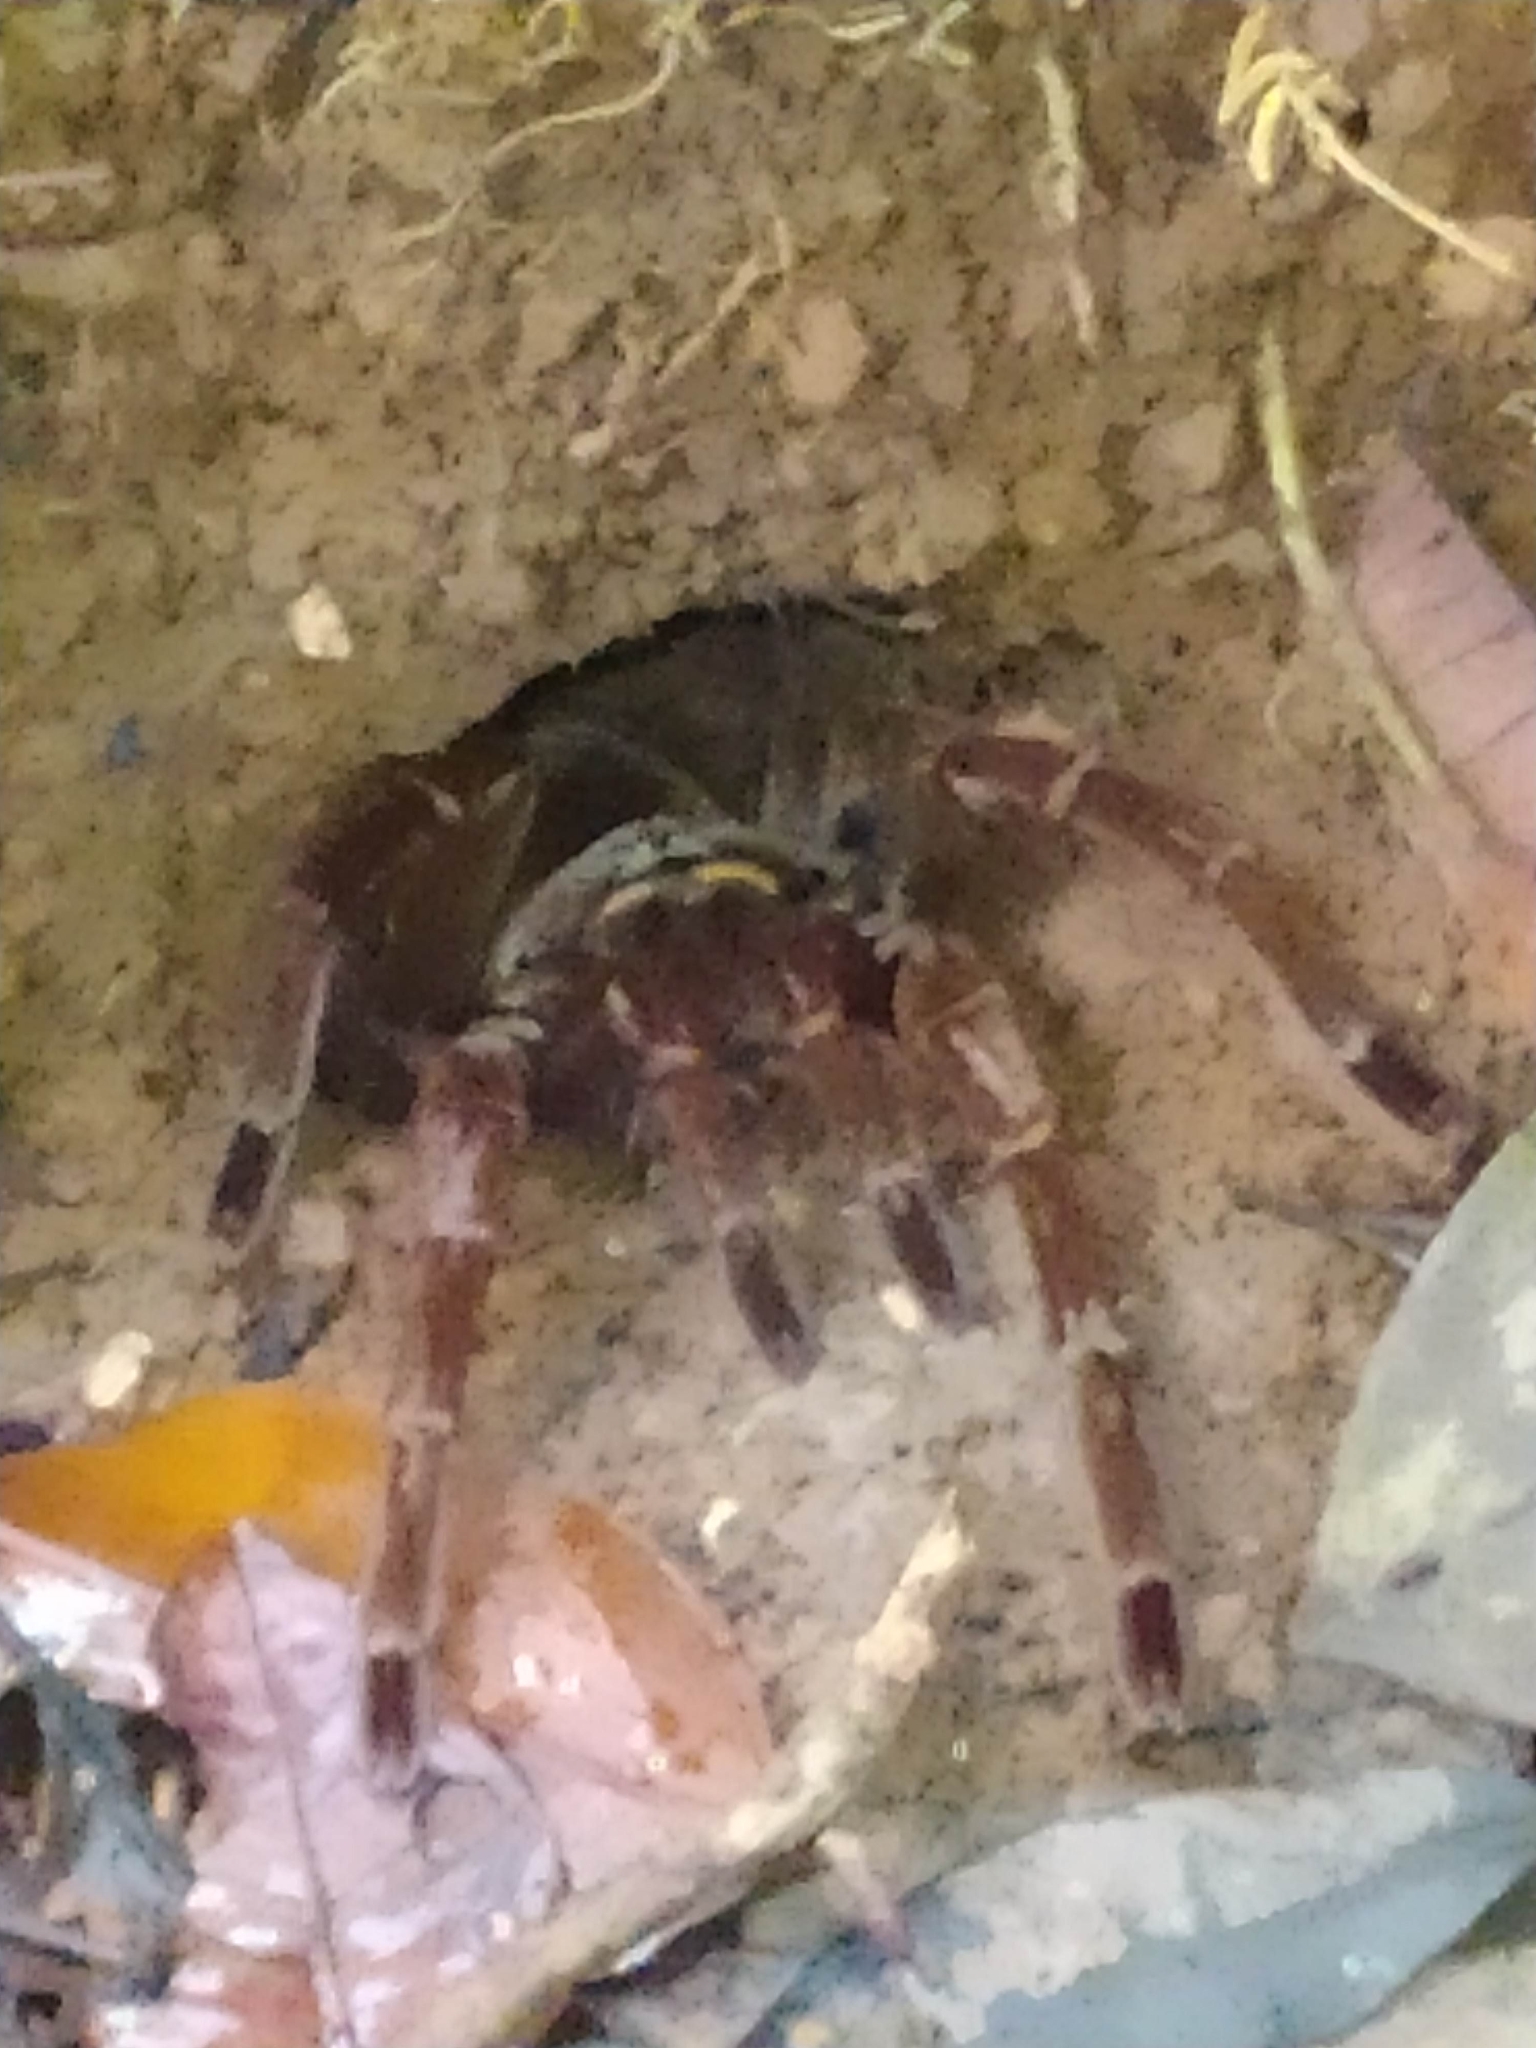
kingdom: Animalia
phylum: Arthropoda
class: Arachnida
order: Araneae
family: Theraphosidae
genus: Theraphosa
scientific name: Theraphosa blondi
